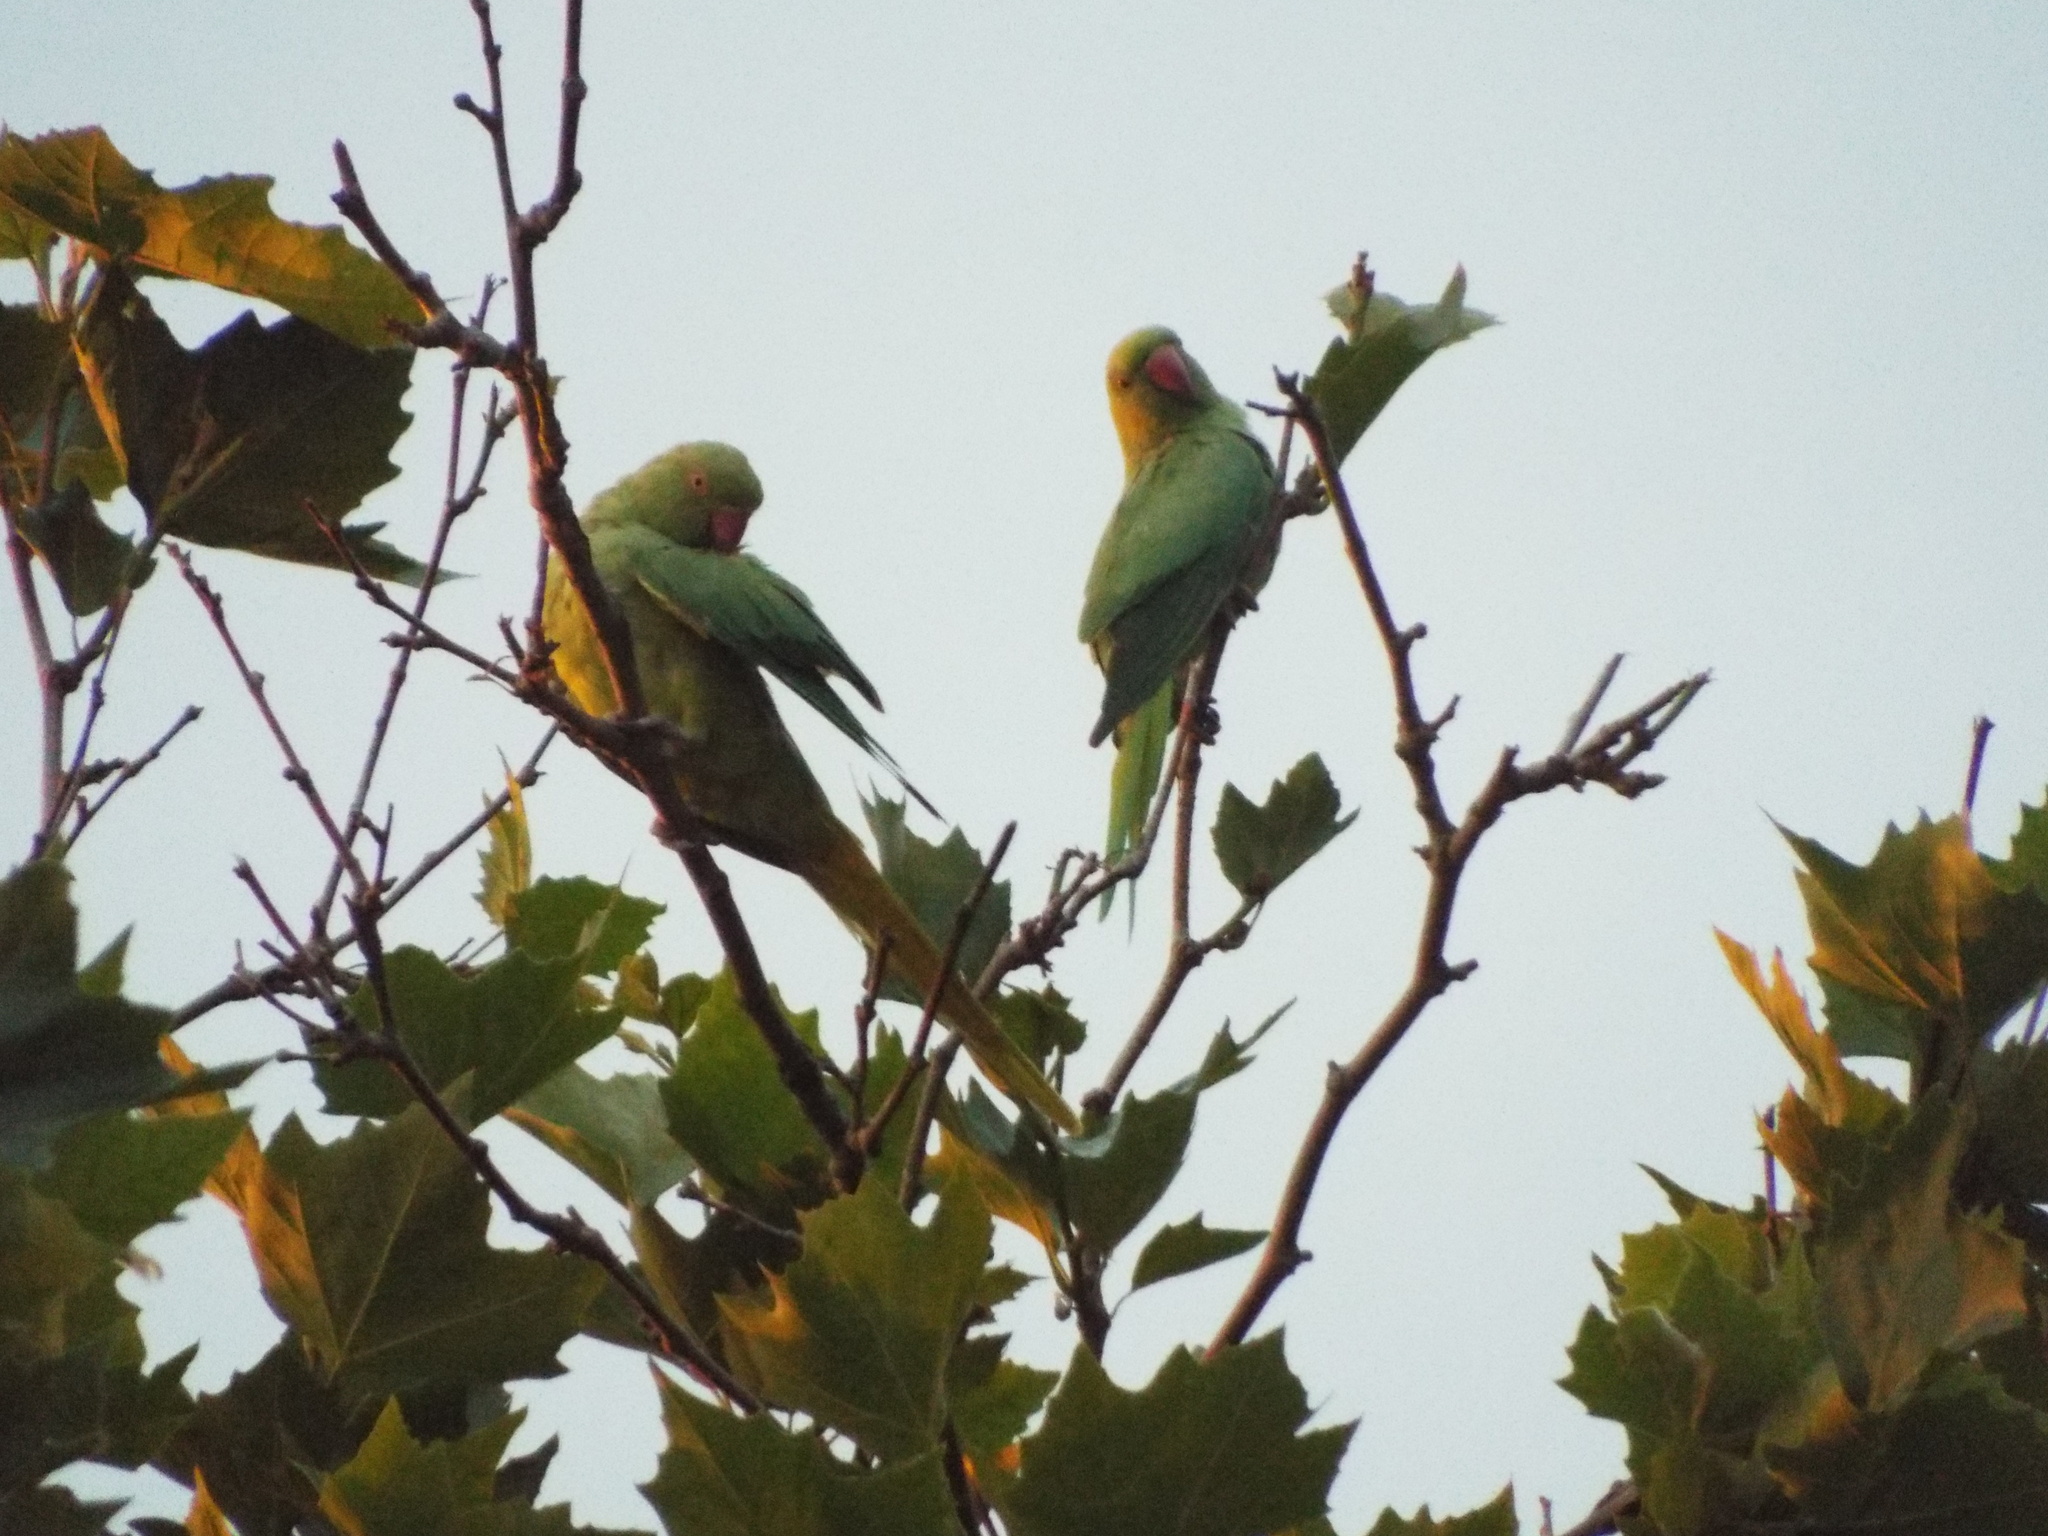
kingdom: Animalia
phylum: Chordata
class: Aves
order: Psittaciformes
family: Psittacidae
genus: Psittacula
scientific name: Psittacula krameri
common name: Rose-ringed parakeet
